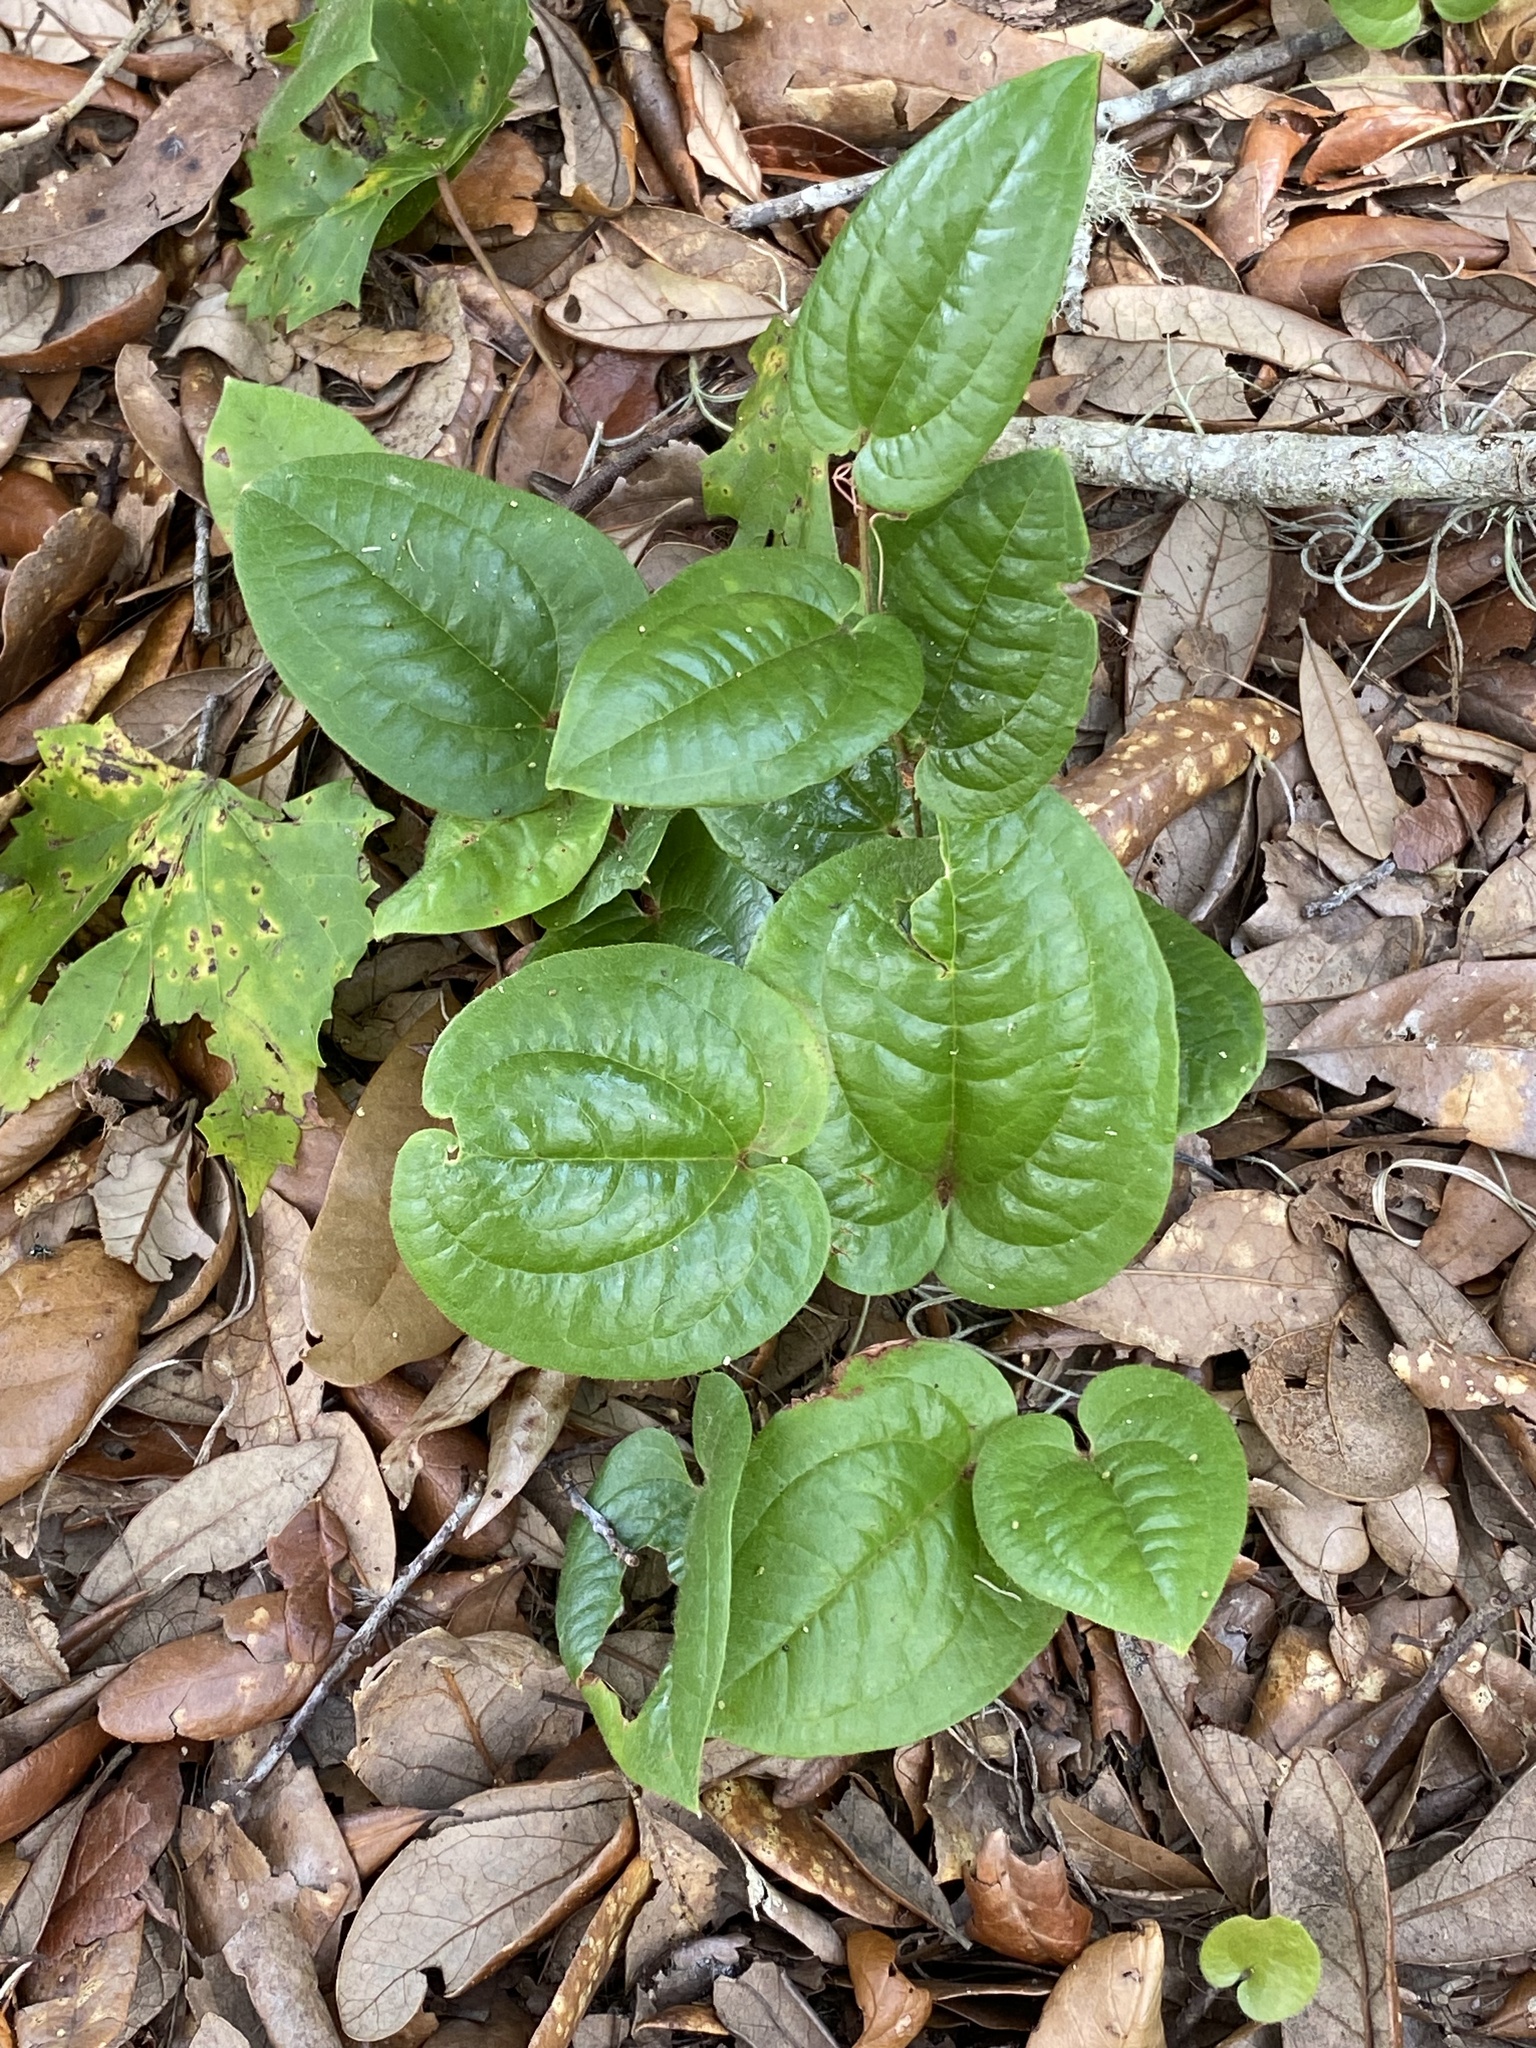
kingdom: Plantae
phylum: Tracheophyta
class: Liliopsida
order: Liliales
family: Smilacaceae
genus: Smilax
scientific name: Smilax pumila
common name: Sarsaparilla-vine
